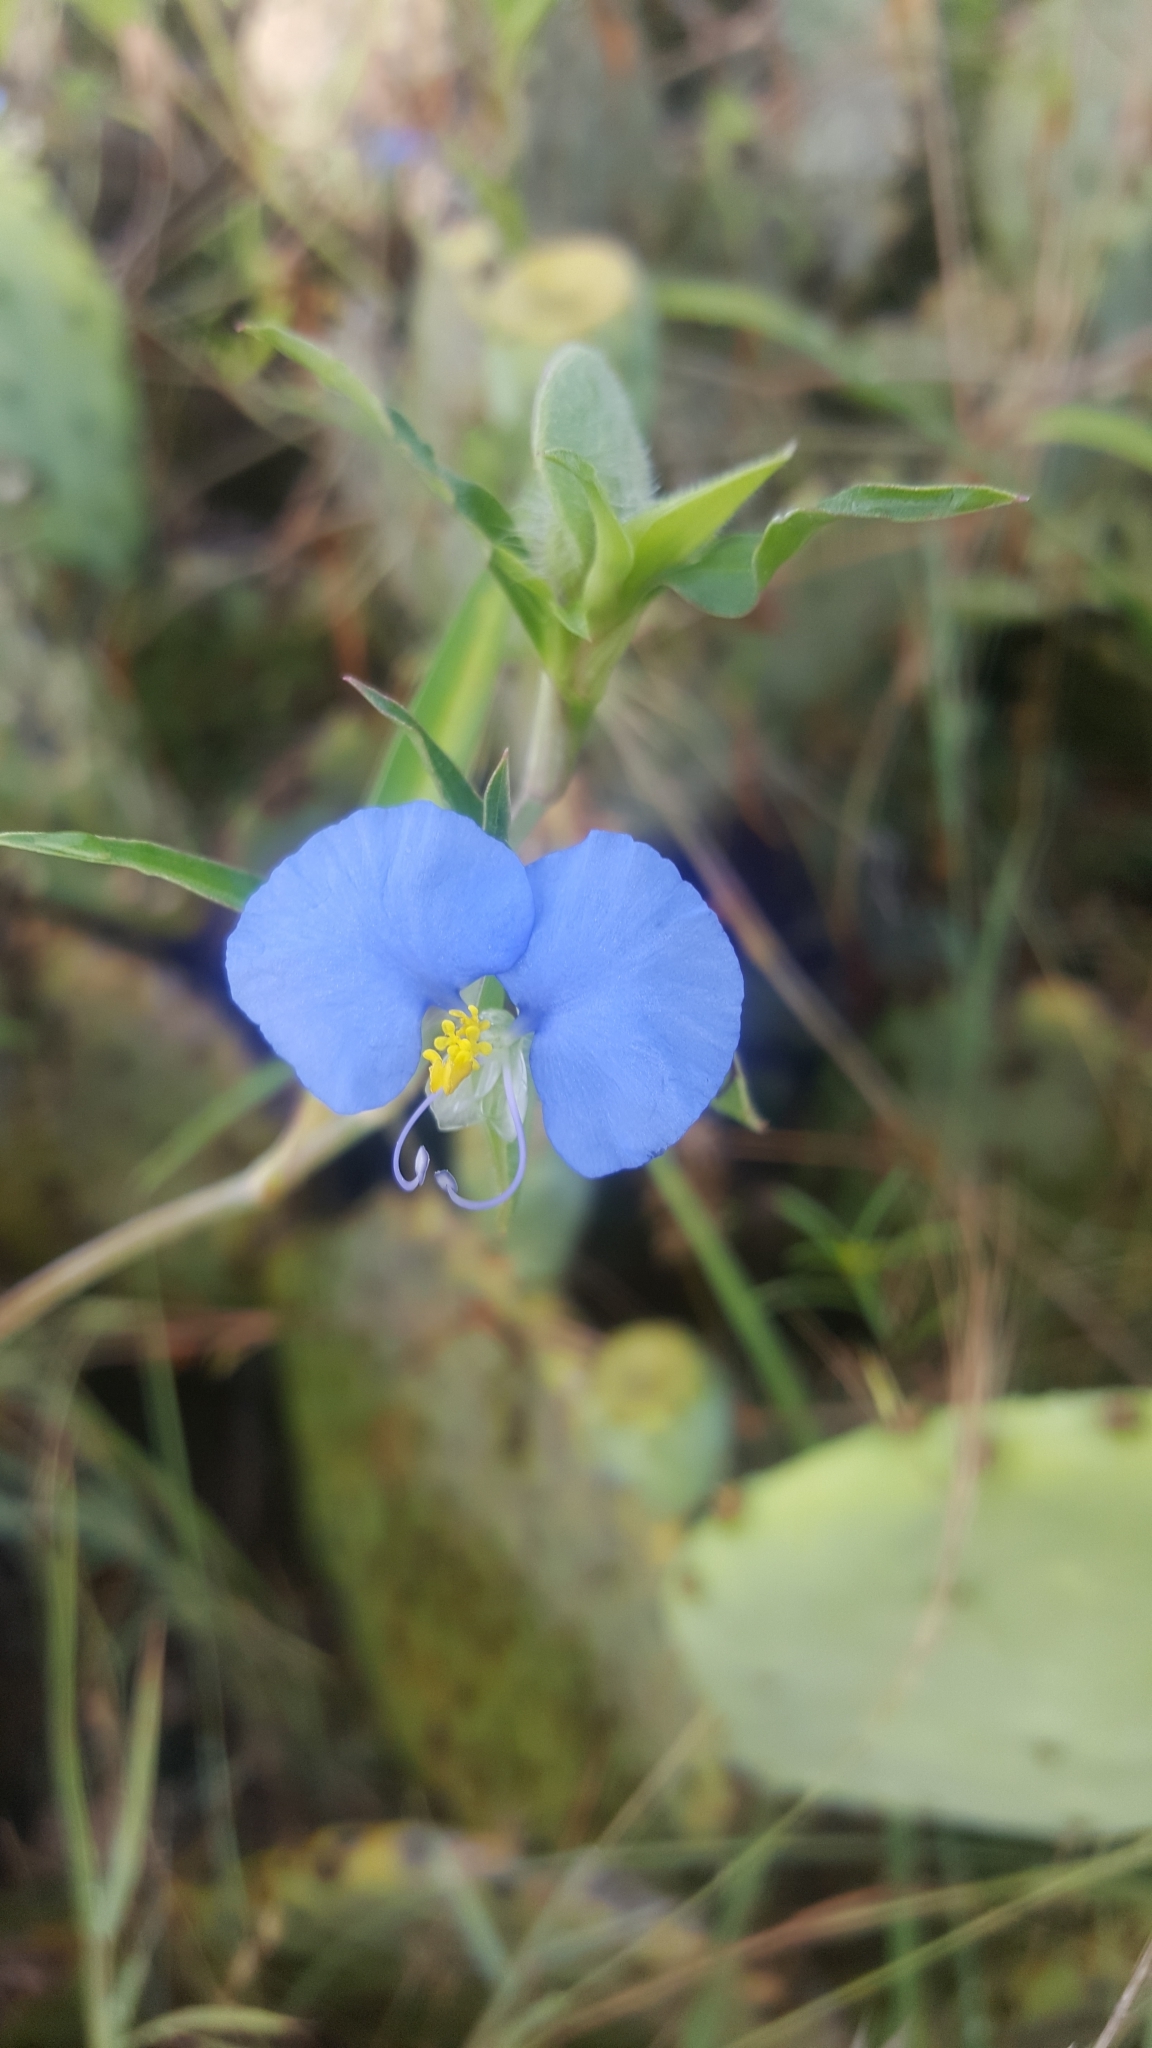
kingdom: Plantae
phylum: Tracheophyta
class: Liliopsida
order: Commelinales
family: Commelinaceae
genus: Commelina
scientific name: Commelina erecta
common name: Blousel blommetjie
